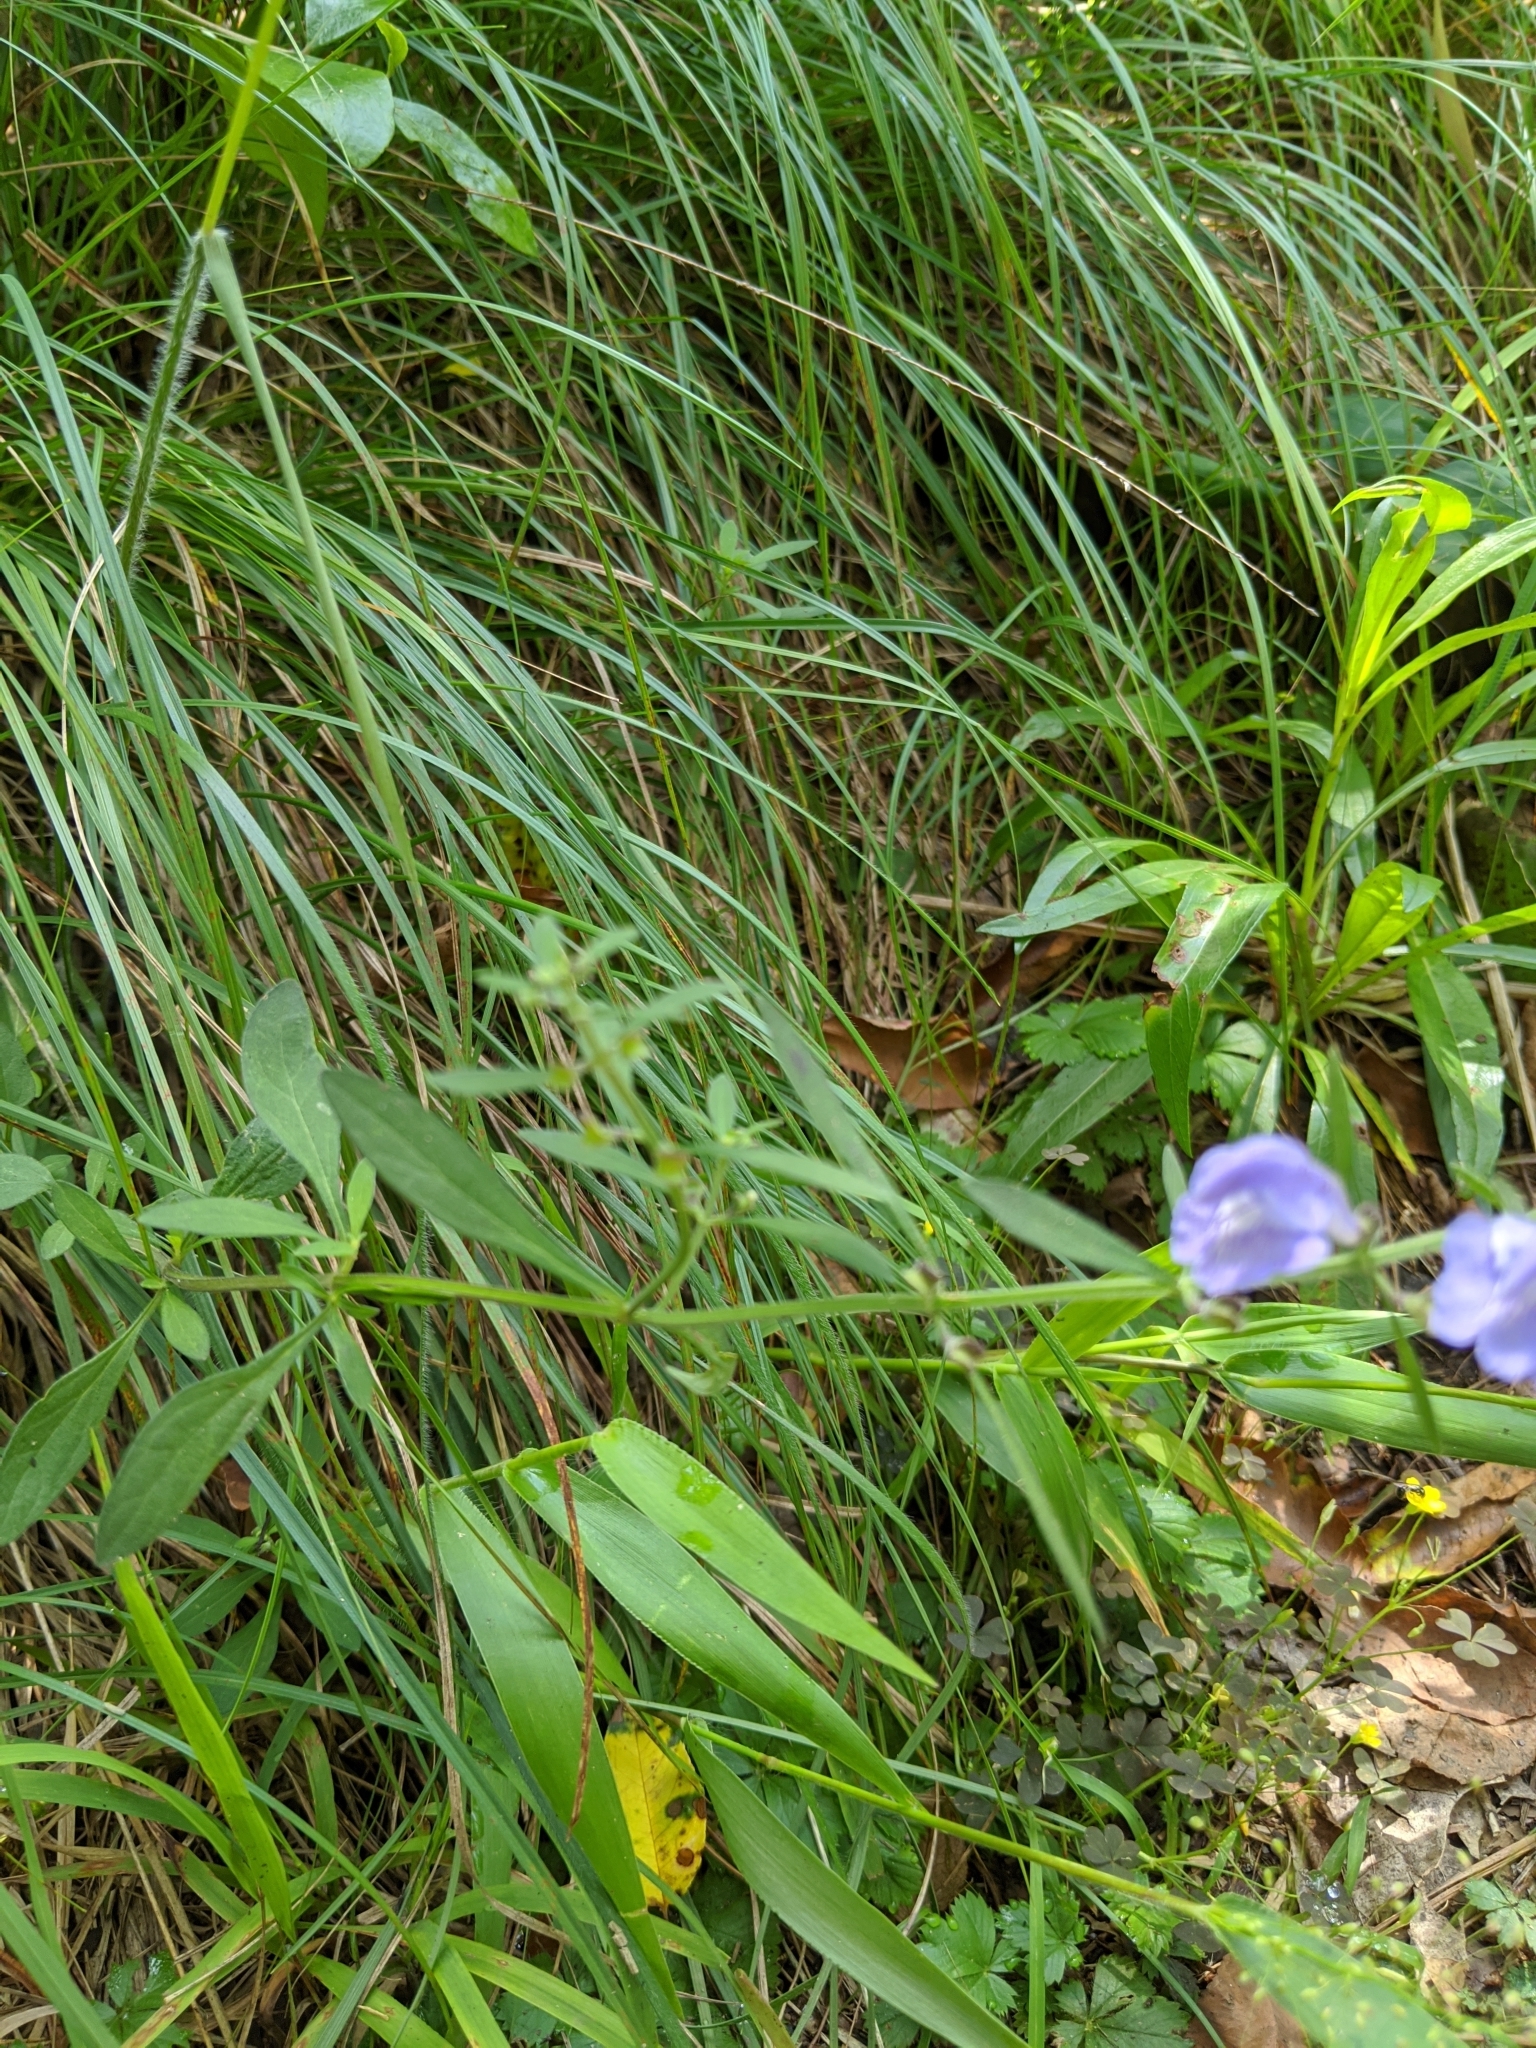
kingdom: Plantae
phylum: Tracheophyta
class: Magnoliopsida
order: Lamiales
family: Lamiaceae
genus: Scutellaria
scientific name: Scutellaria integrifolia
